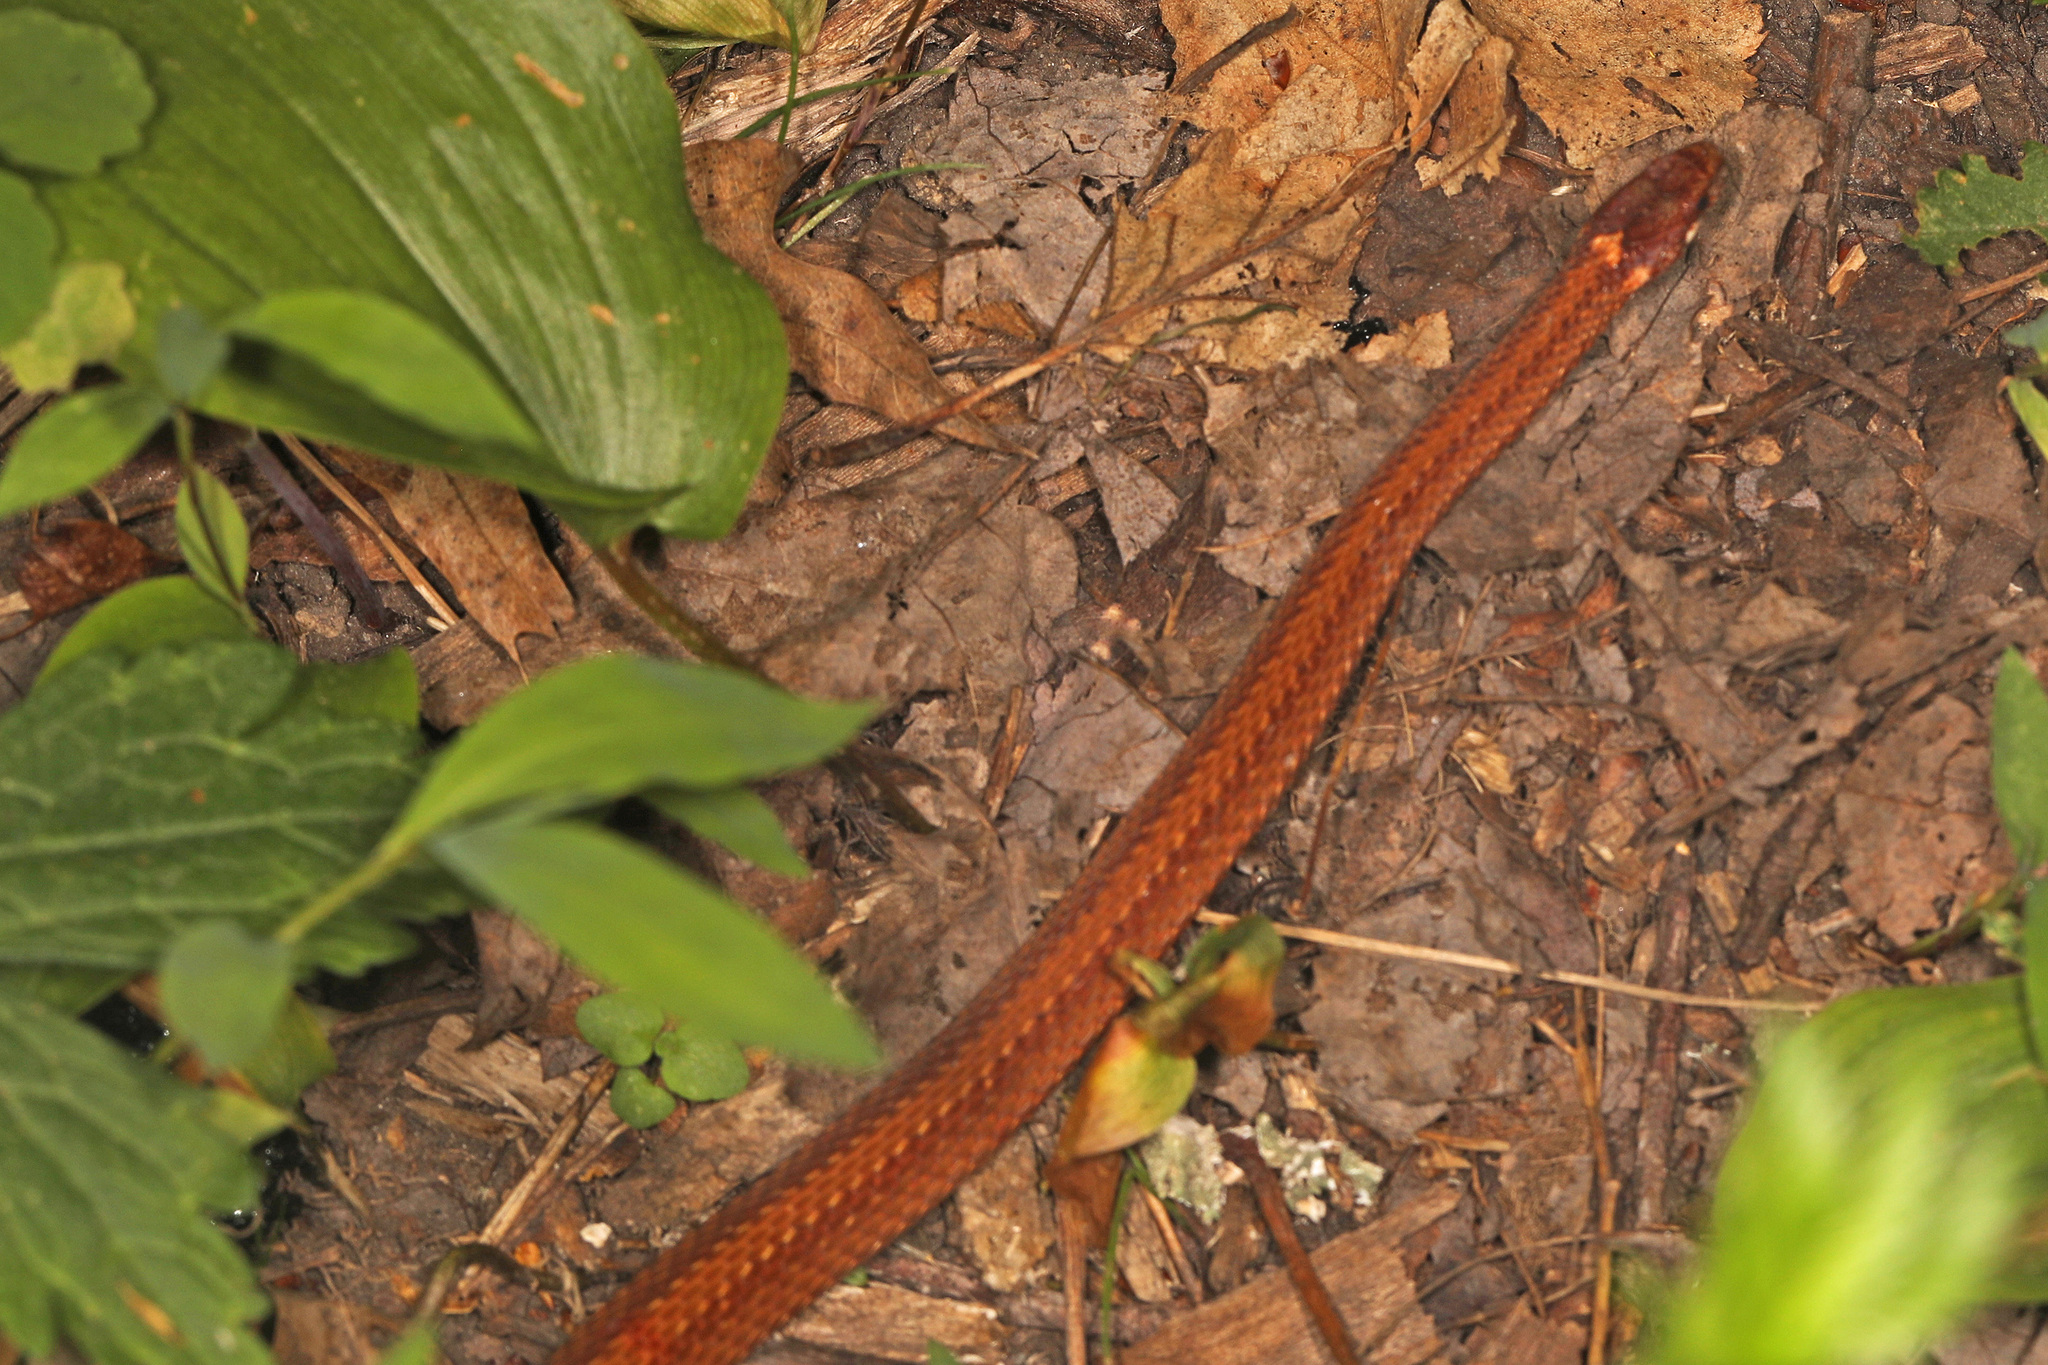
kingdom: Animalia
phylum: Chordata
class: Squamata
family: Colubridae
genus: Storeria
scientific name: Storeria occipitomaculata
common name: Redbelly snake
